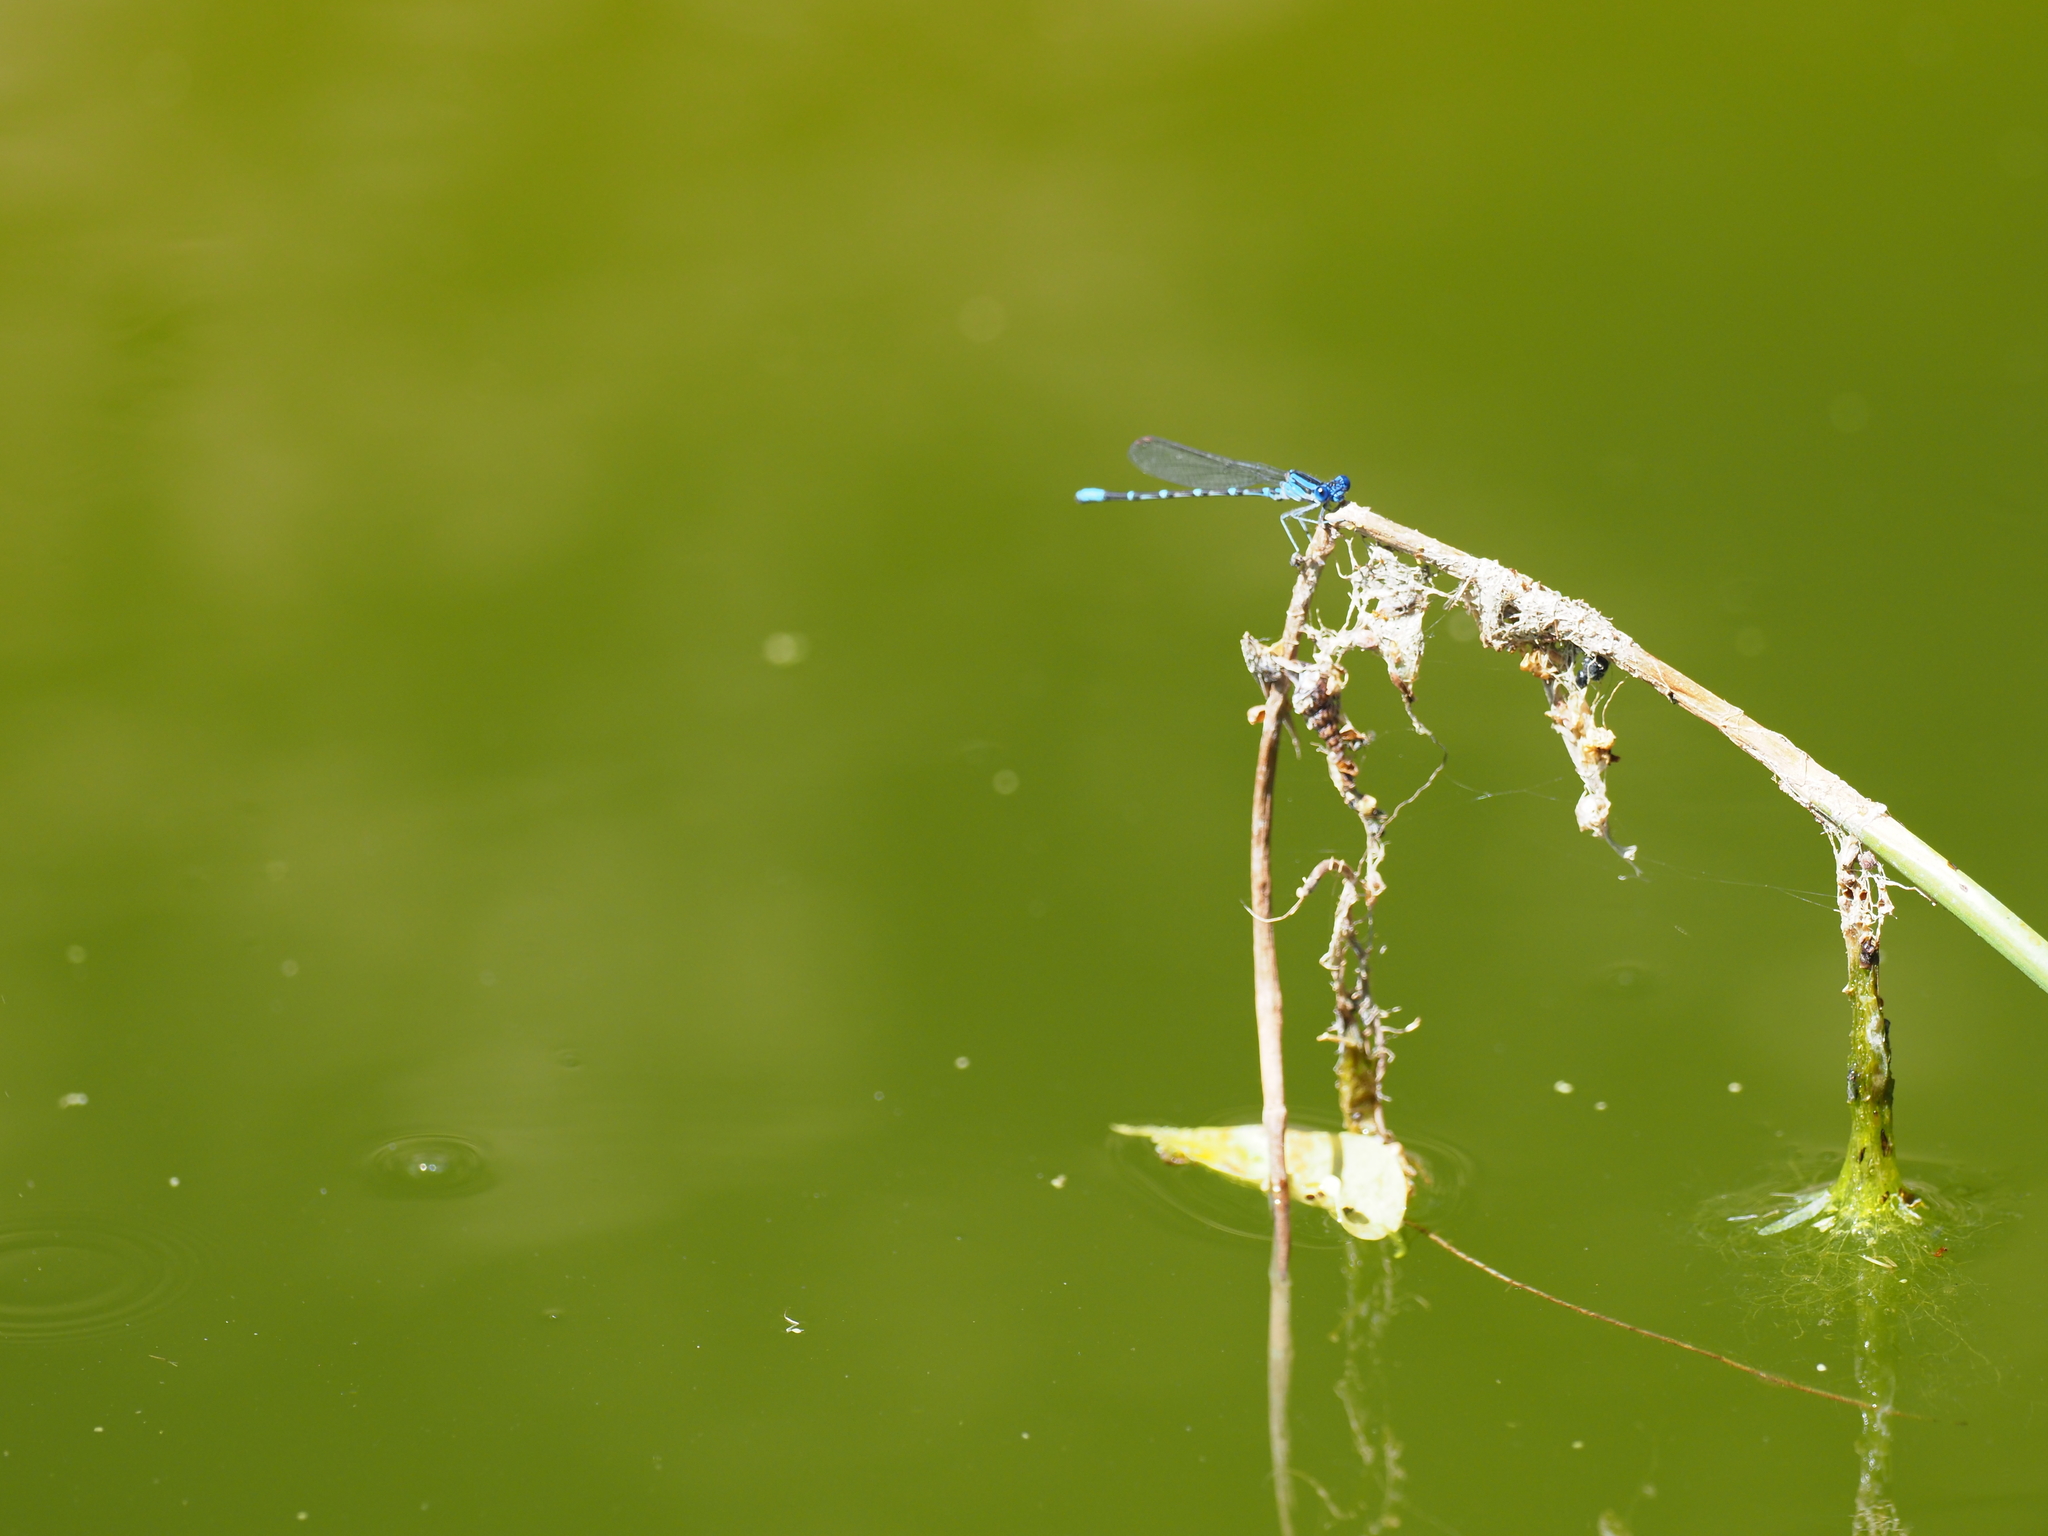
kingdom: Animalia
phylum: Arthropoda
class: Insecta
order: Odonata
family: Coenagrionidae
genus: Argia
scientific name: Argia sedula
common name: Blue-ringed dancer
